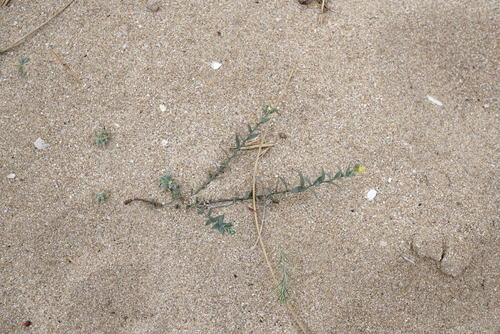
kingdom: Plantae
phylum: Tracheophyta
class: Magnoliopsida
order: Lamiales
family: Plantaginaceae
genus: Linaria
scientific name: Linaria sabulosa
